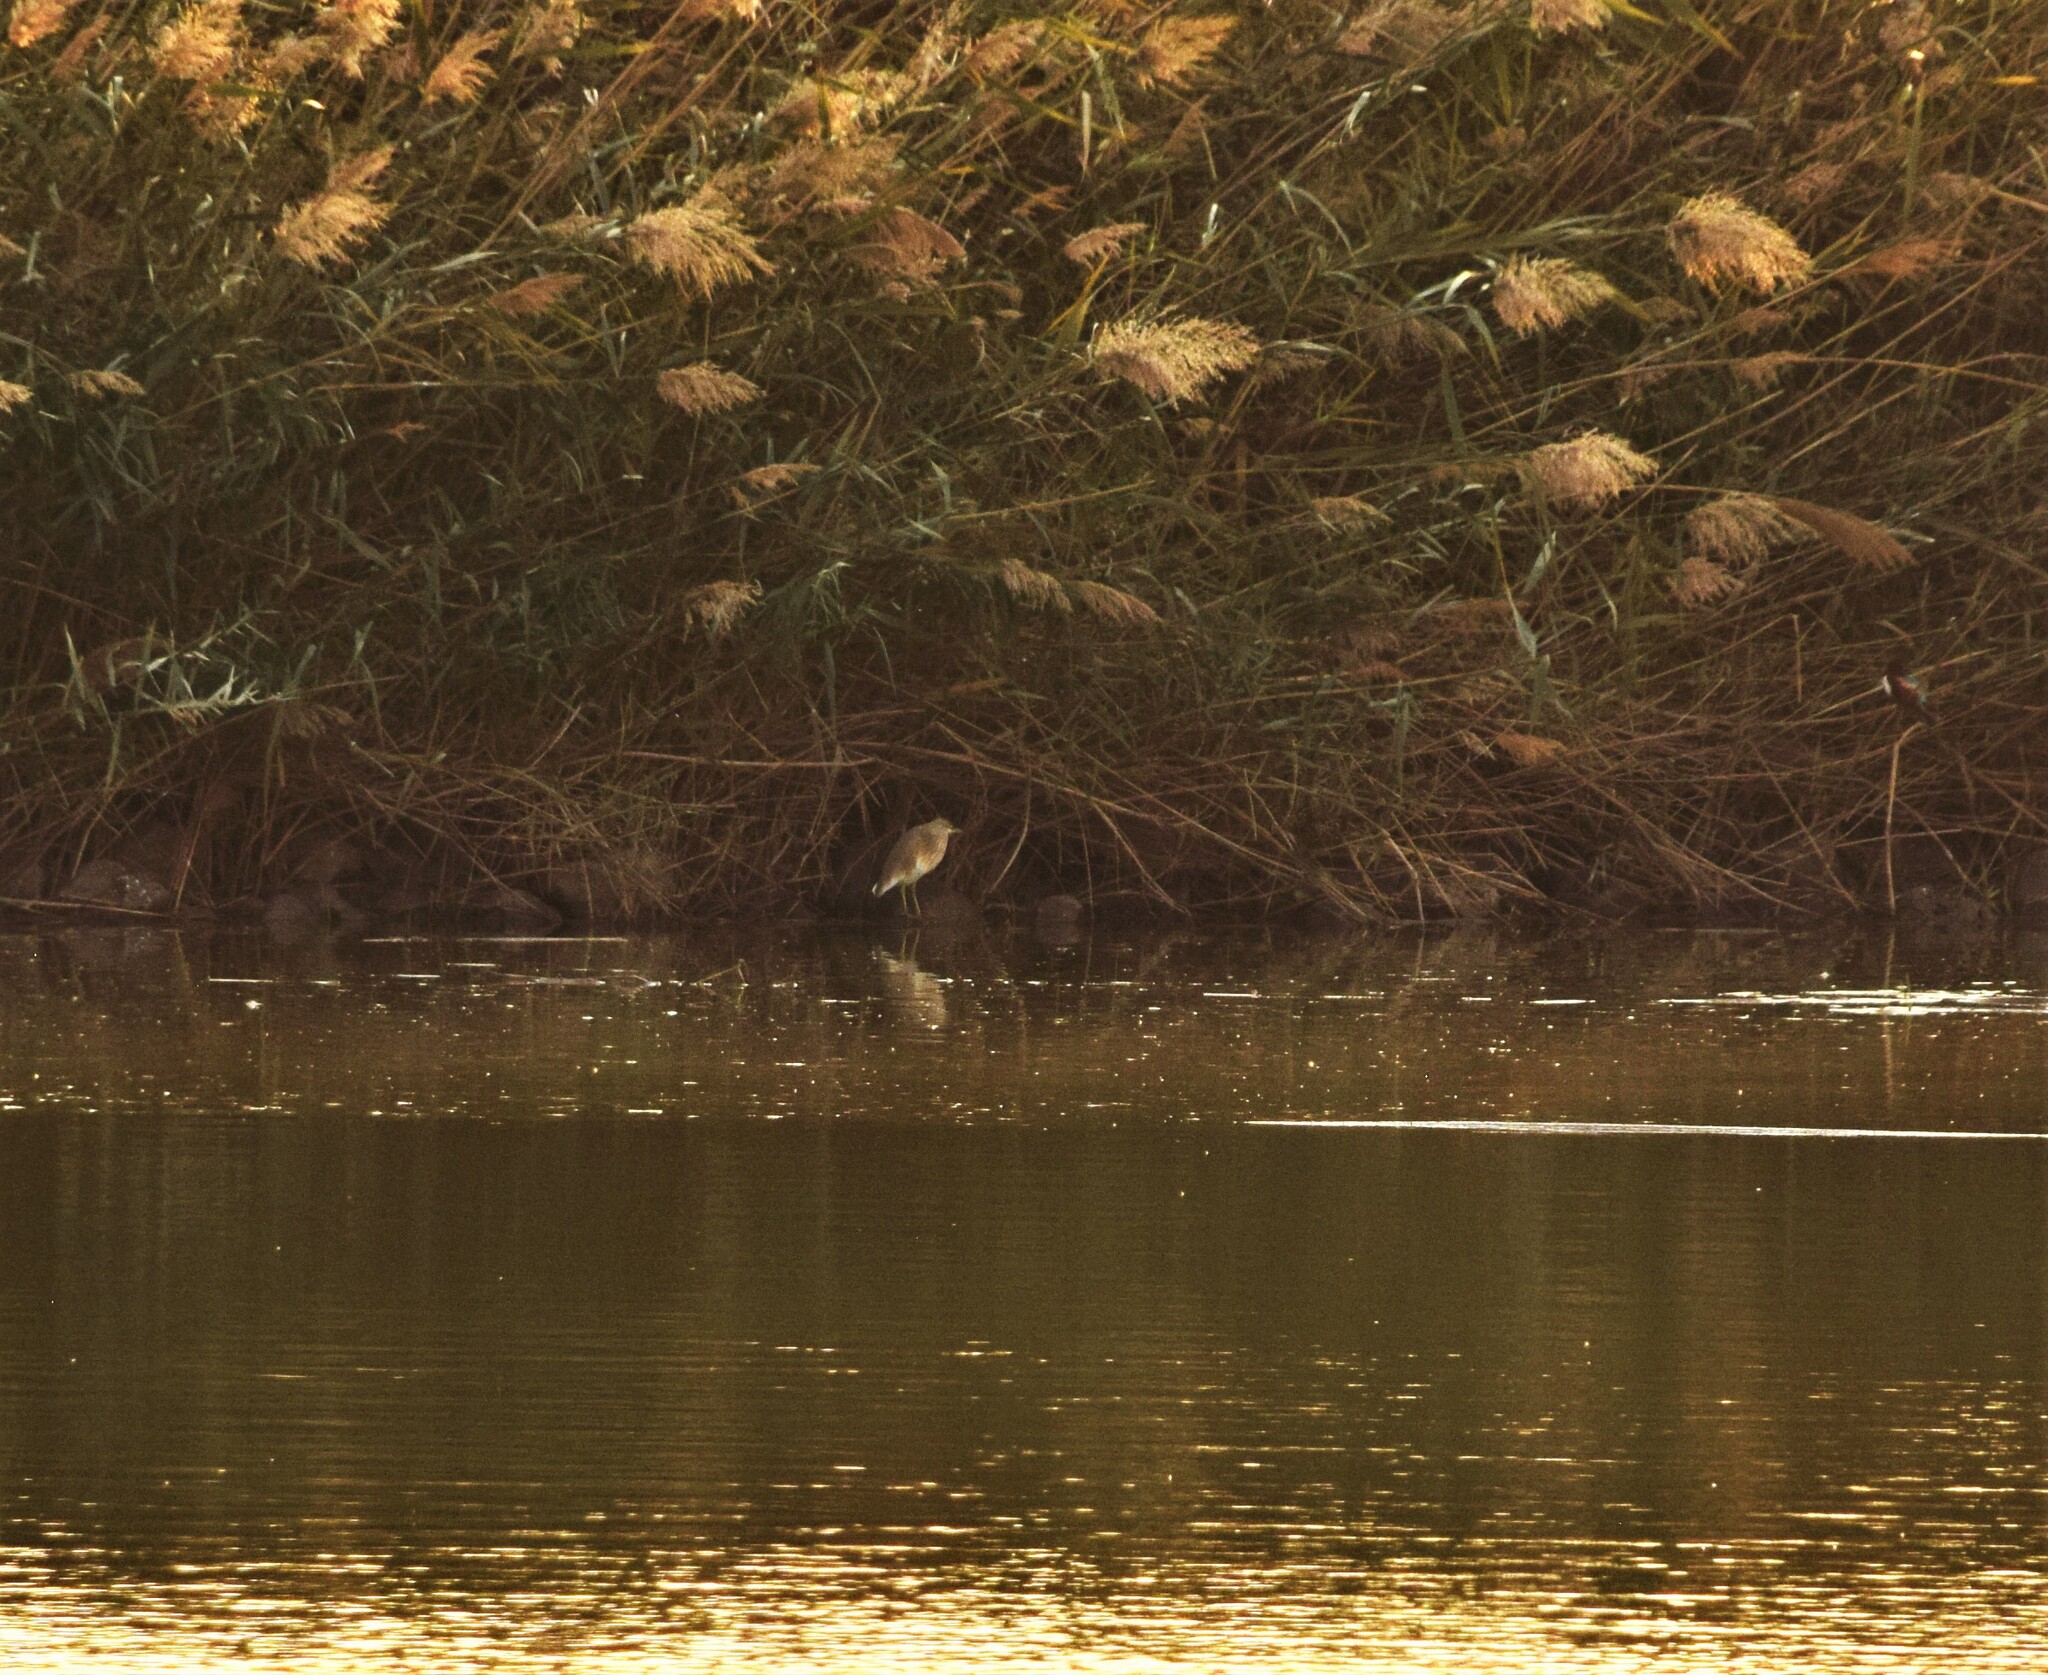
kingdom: Animalia
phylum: Chordata
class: Aves
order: Pelecaniformes
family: Ardeidae
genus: Ardeola
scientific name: Ardeola ralloides
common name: Squacco heron
